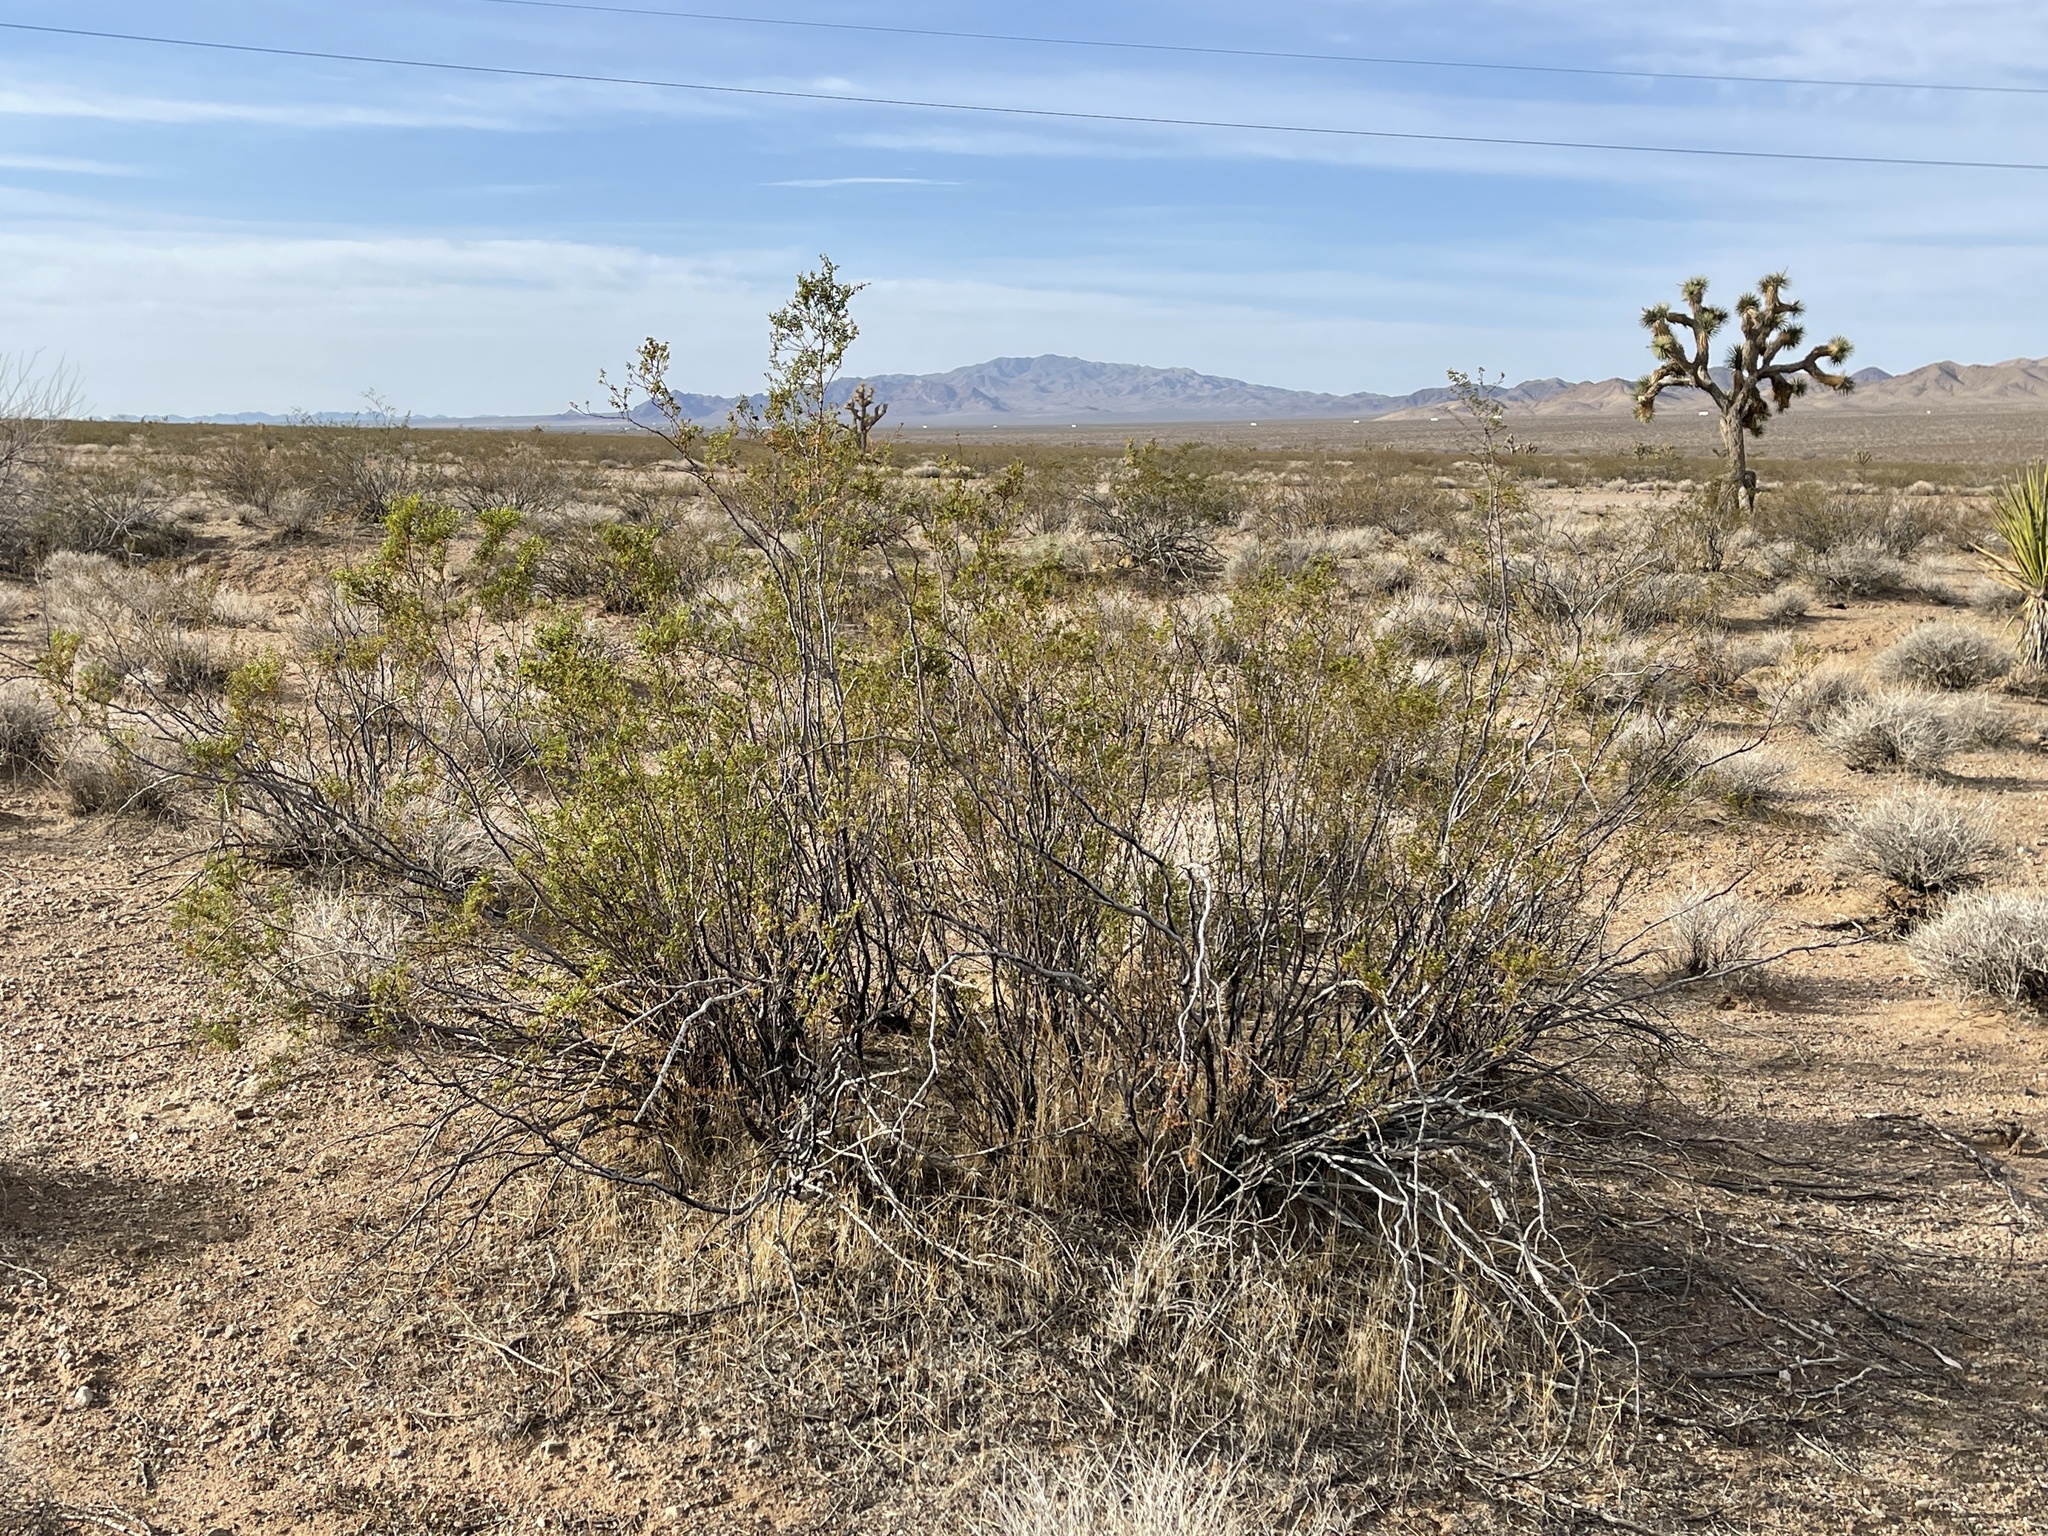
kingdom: Plantae
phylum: Tracheophyta
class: Magnoliopsida
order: Zygophyllales
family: Zygophyllaceae
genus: Larrea
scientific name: Larrea tridentata
